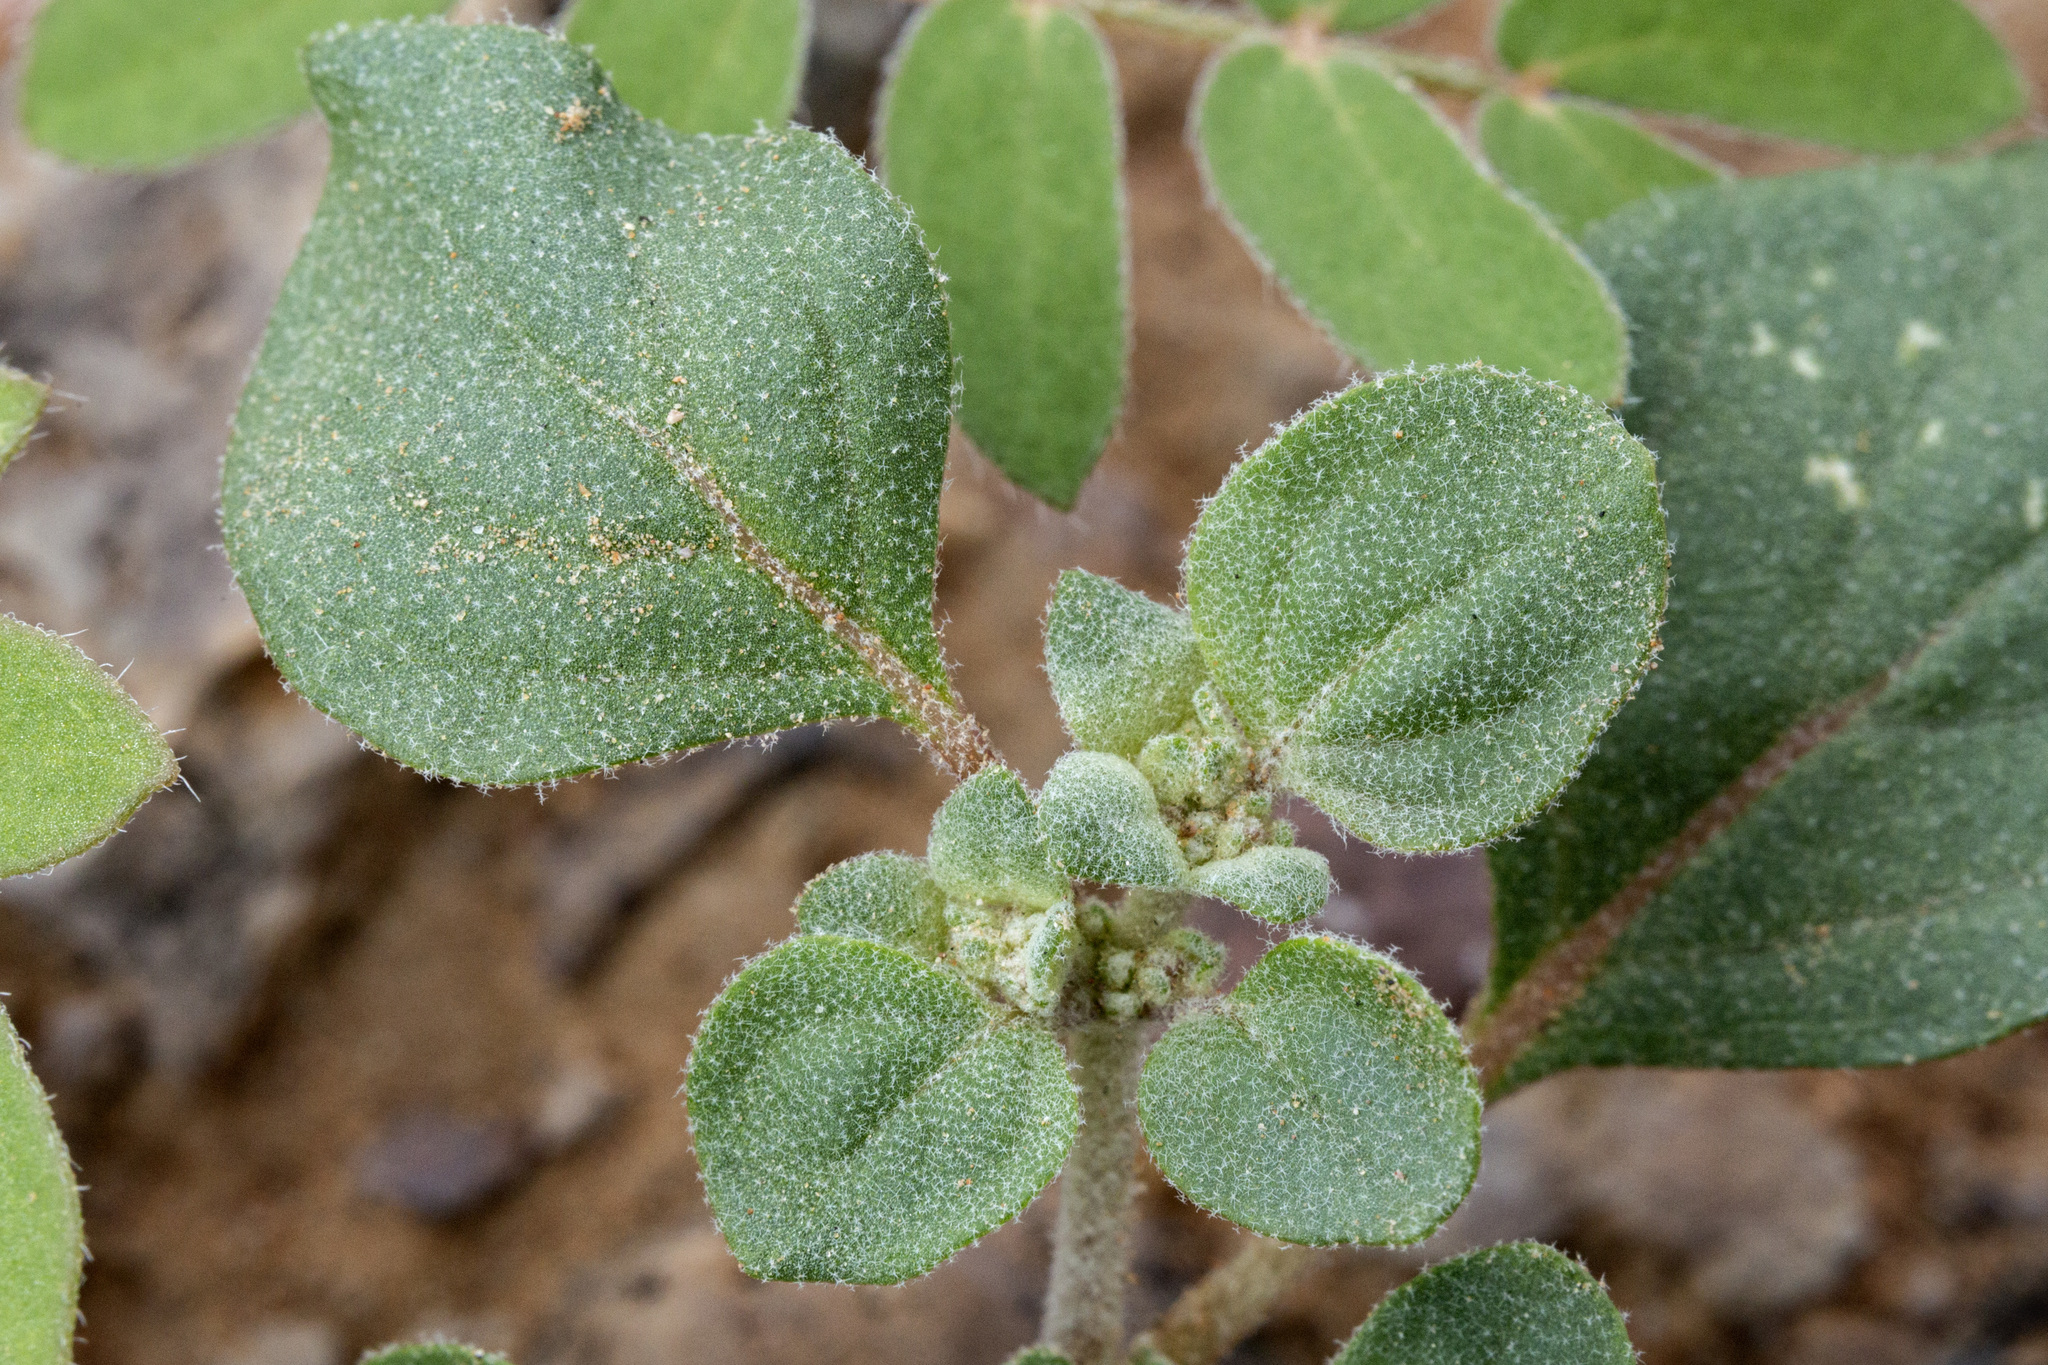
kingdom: Plantae
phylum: Tracheophyta
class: Magnoliopsida
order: Caryophyllales
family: Amaranthaceae
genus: Tidestromia
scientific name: Tidestromia lanuginosa
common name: Woolly tidestromia
